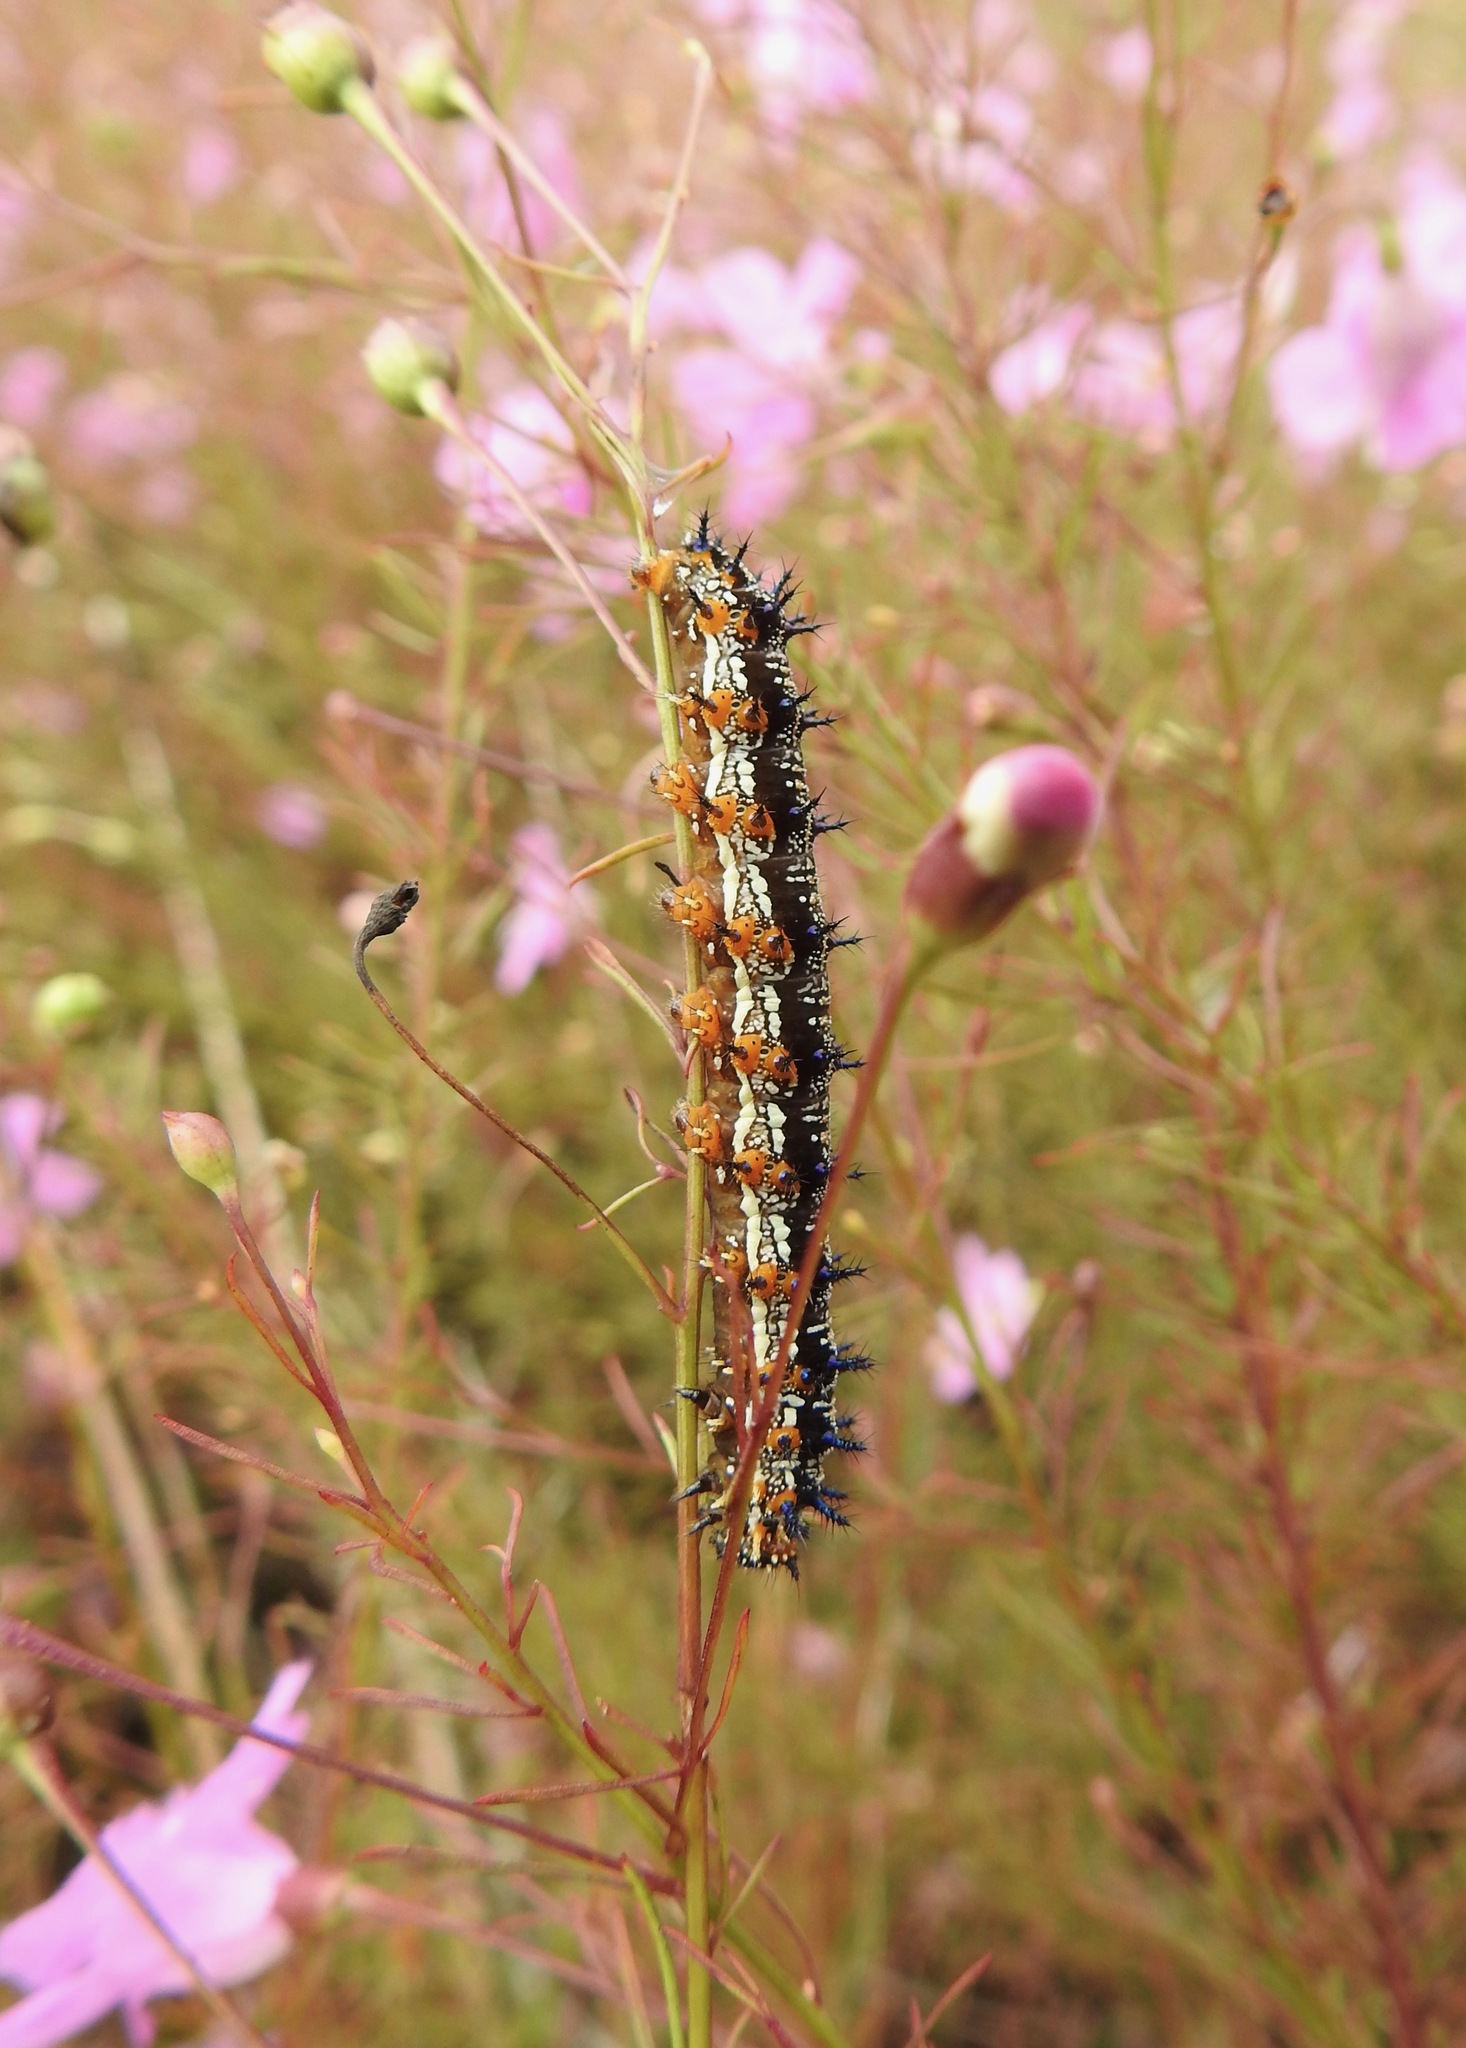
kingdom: Animalia
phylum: Arthropoda
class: Insecta
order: Lepidoptera
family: Nymphalidae
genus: Junonia
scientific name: Junonia coenia
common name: Common buckeye
